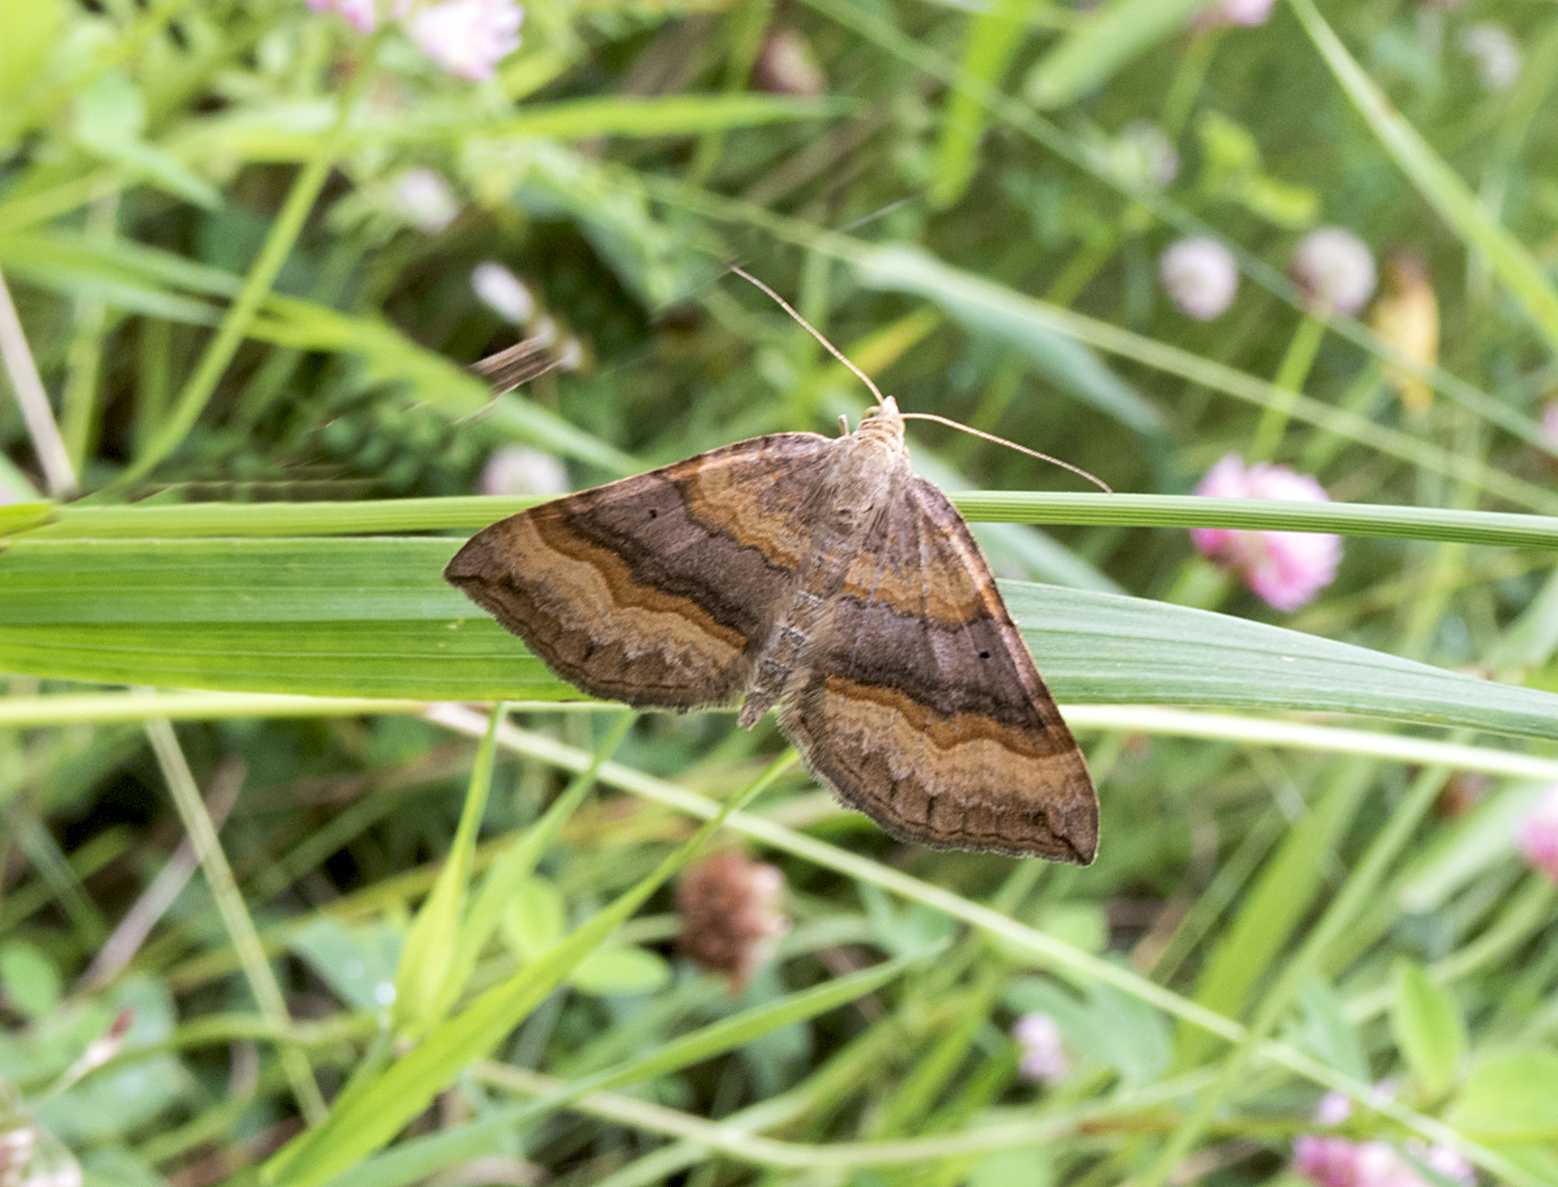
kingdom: Animalia
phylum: Arthropoda
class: Insecta
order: Lepidoptera
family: Geometridae
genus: Scotopteryx
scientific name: Scotopteryx chenopodiata
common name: Shaded broad-bar
